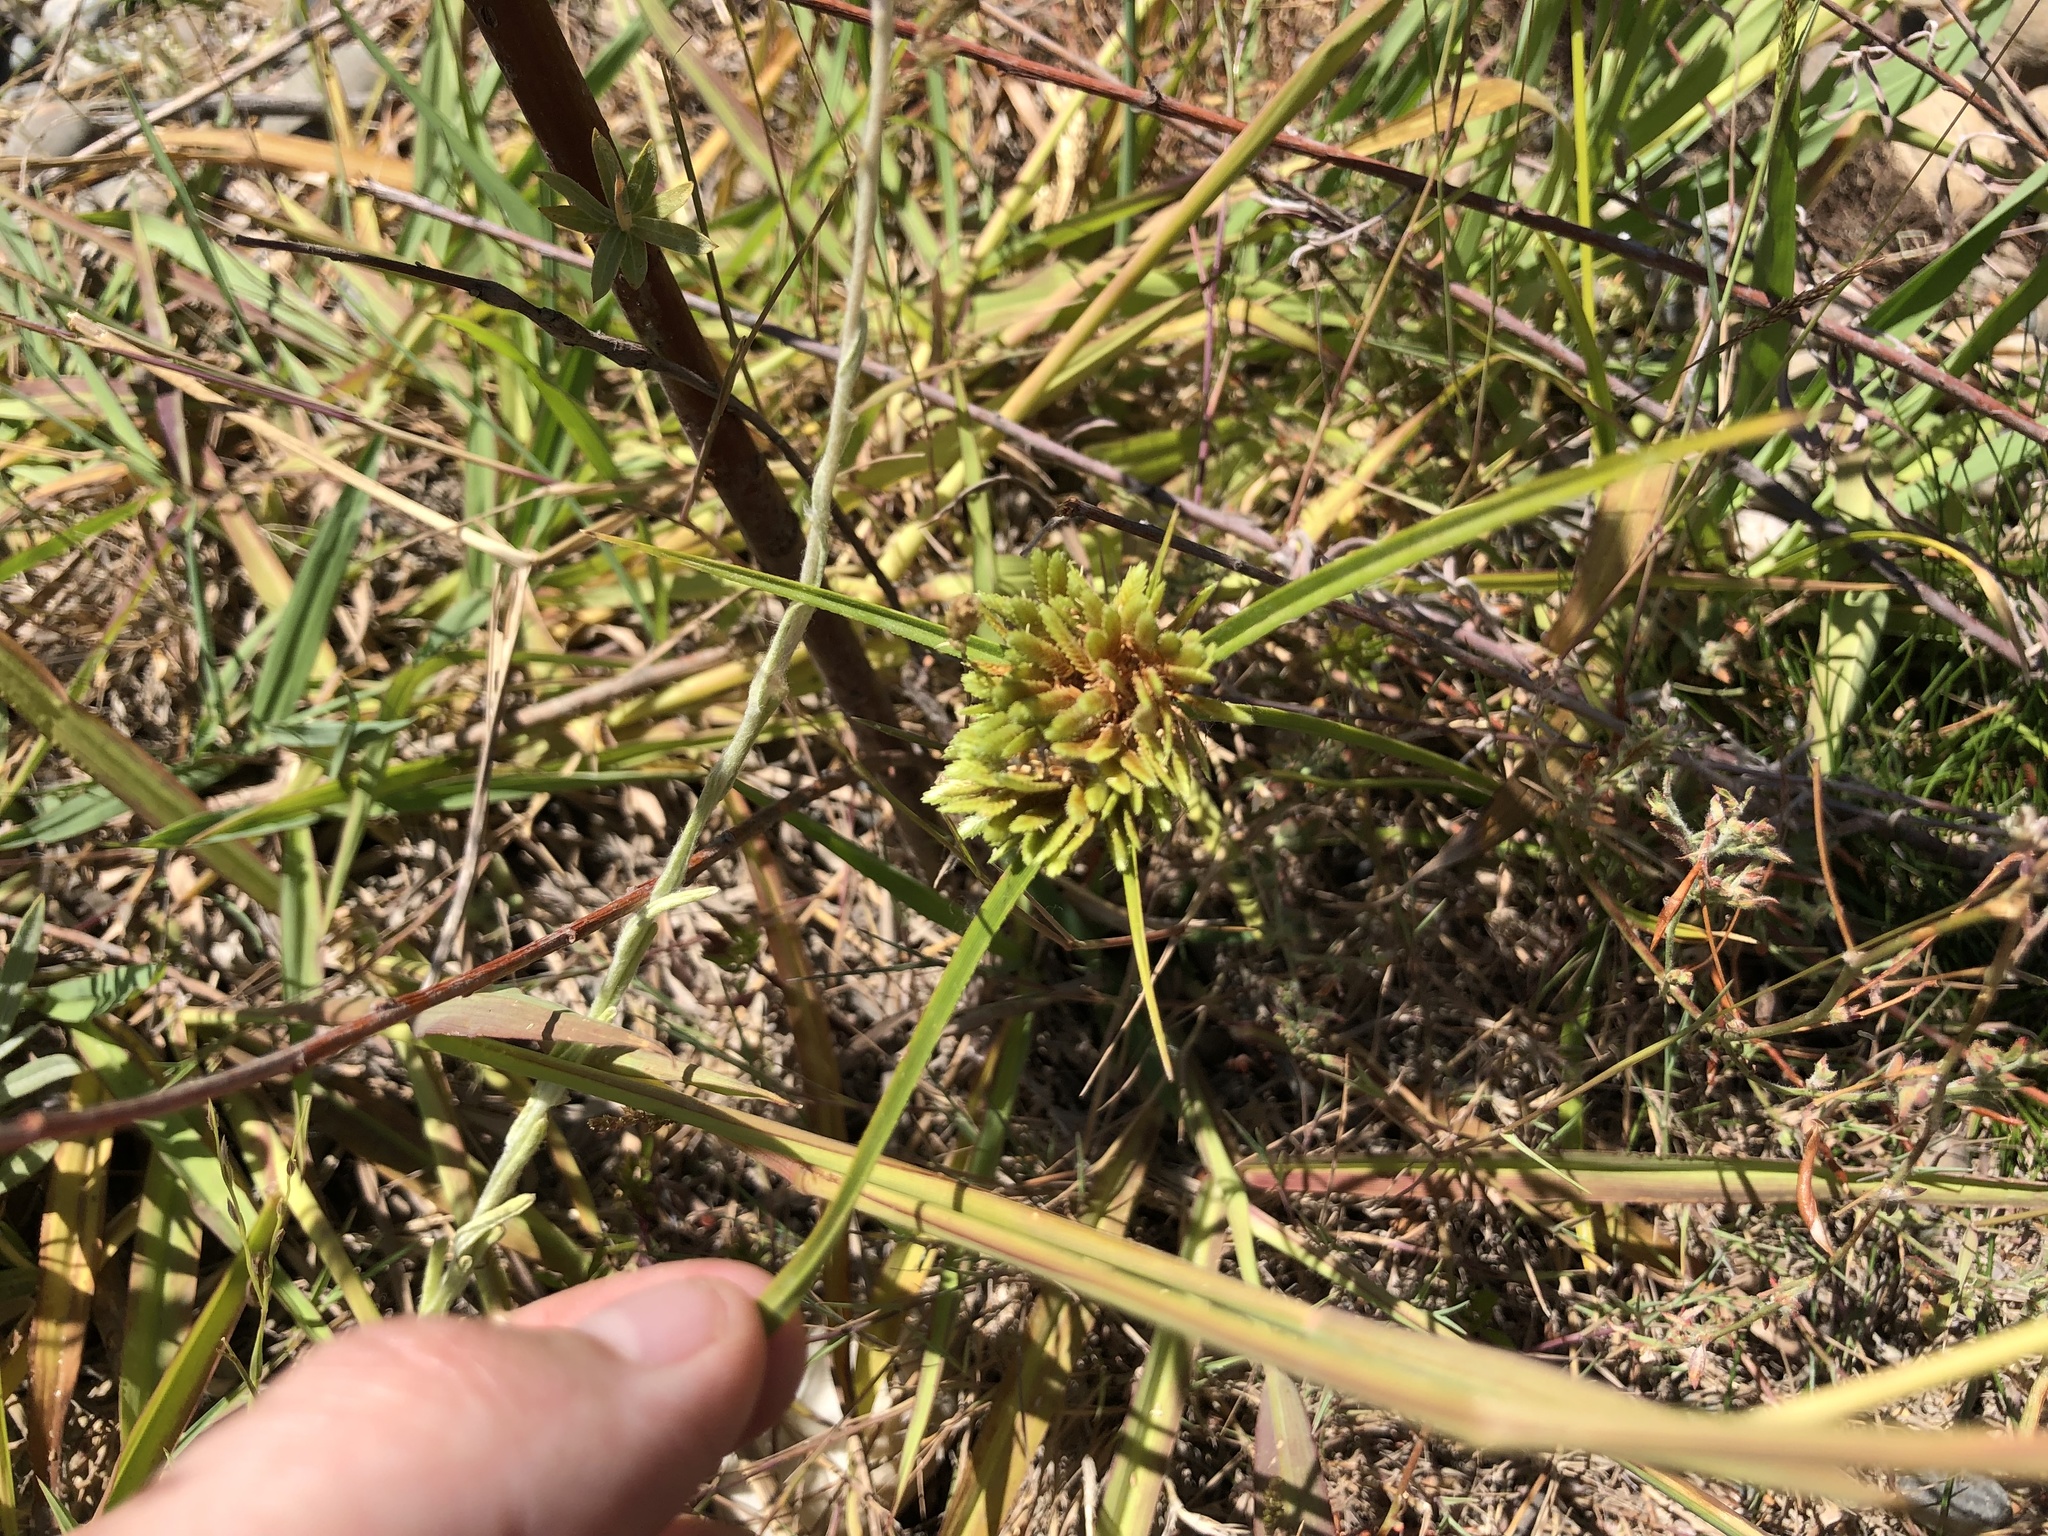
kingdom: Plantae
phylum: Tracheophyta
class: Liliopsida
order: Poales
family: Cyperaceae
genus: Cyperus
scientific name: Cyperus eragrostis
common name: Tall flatsedge
